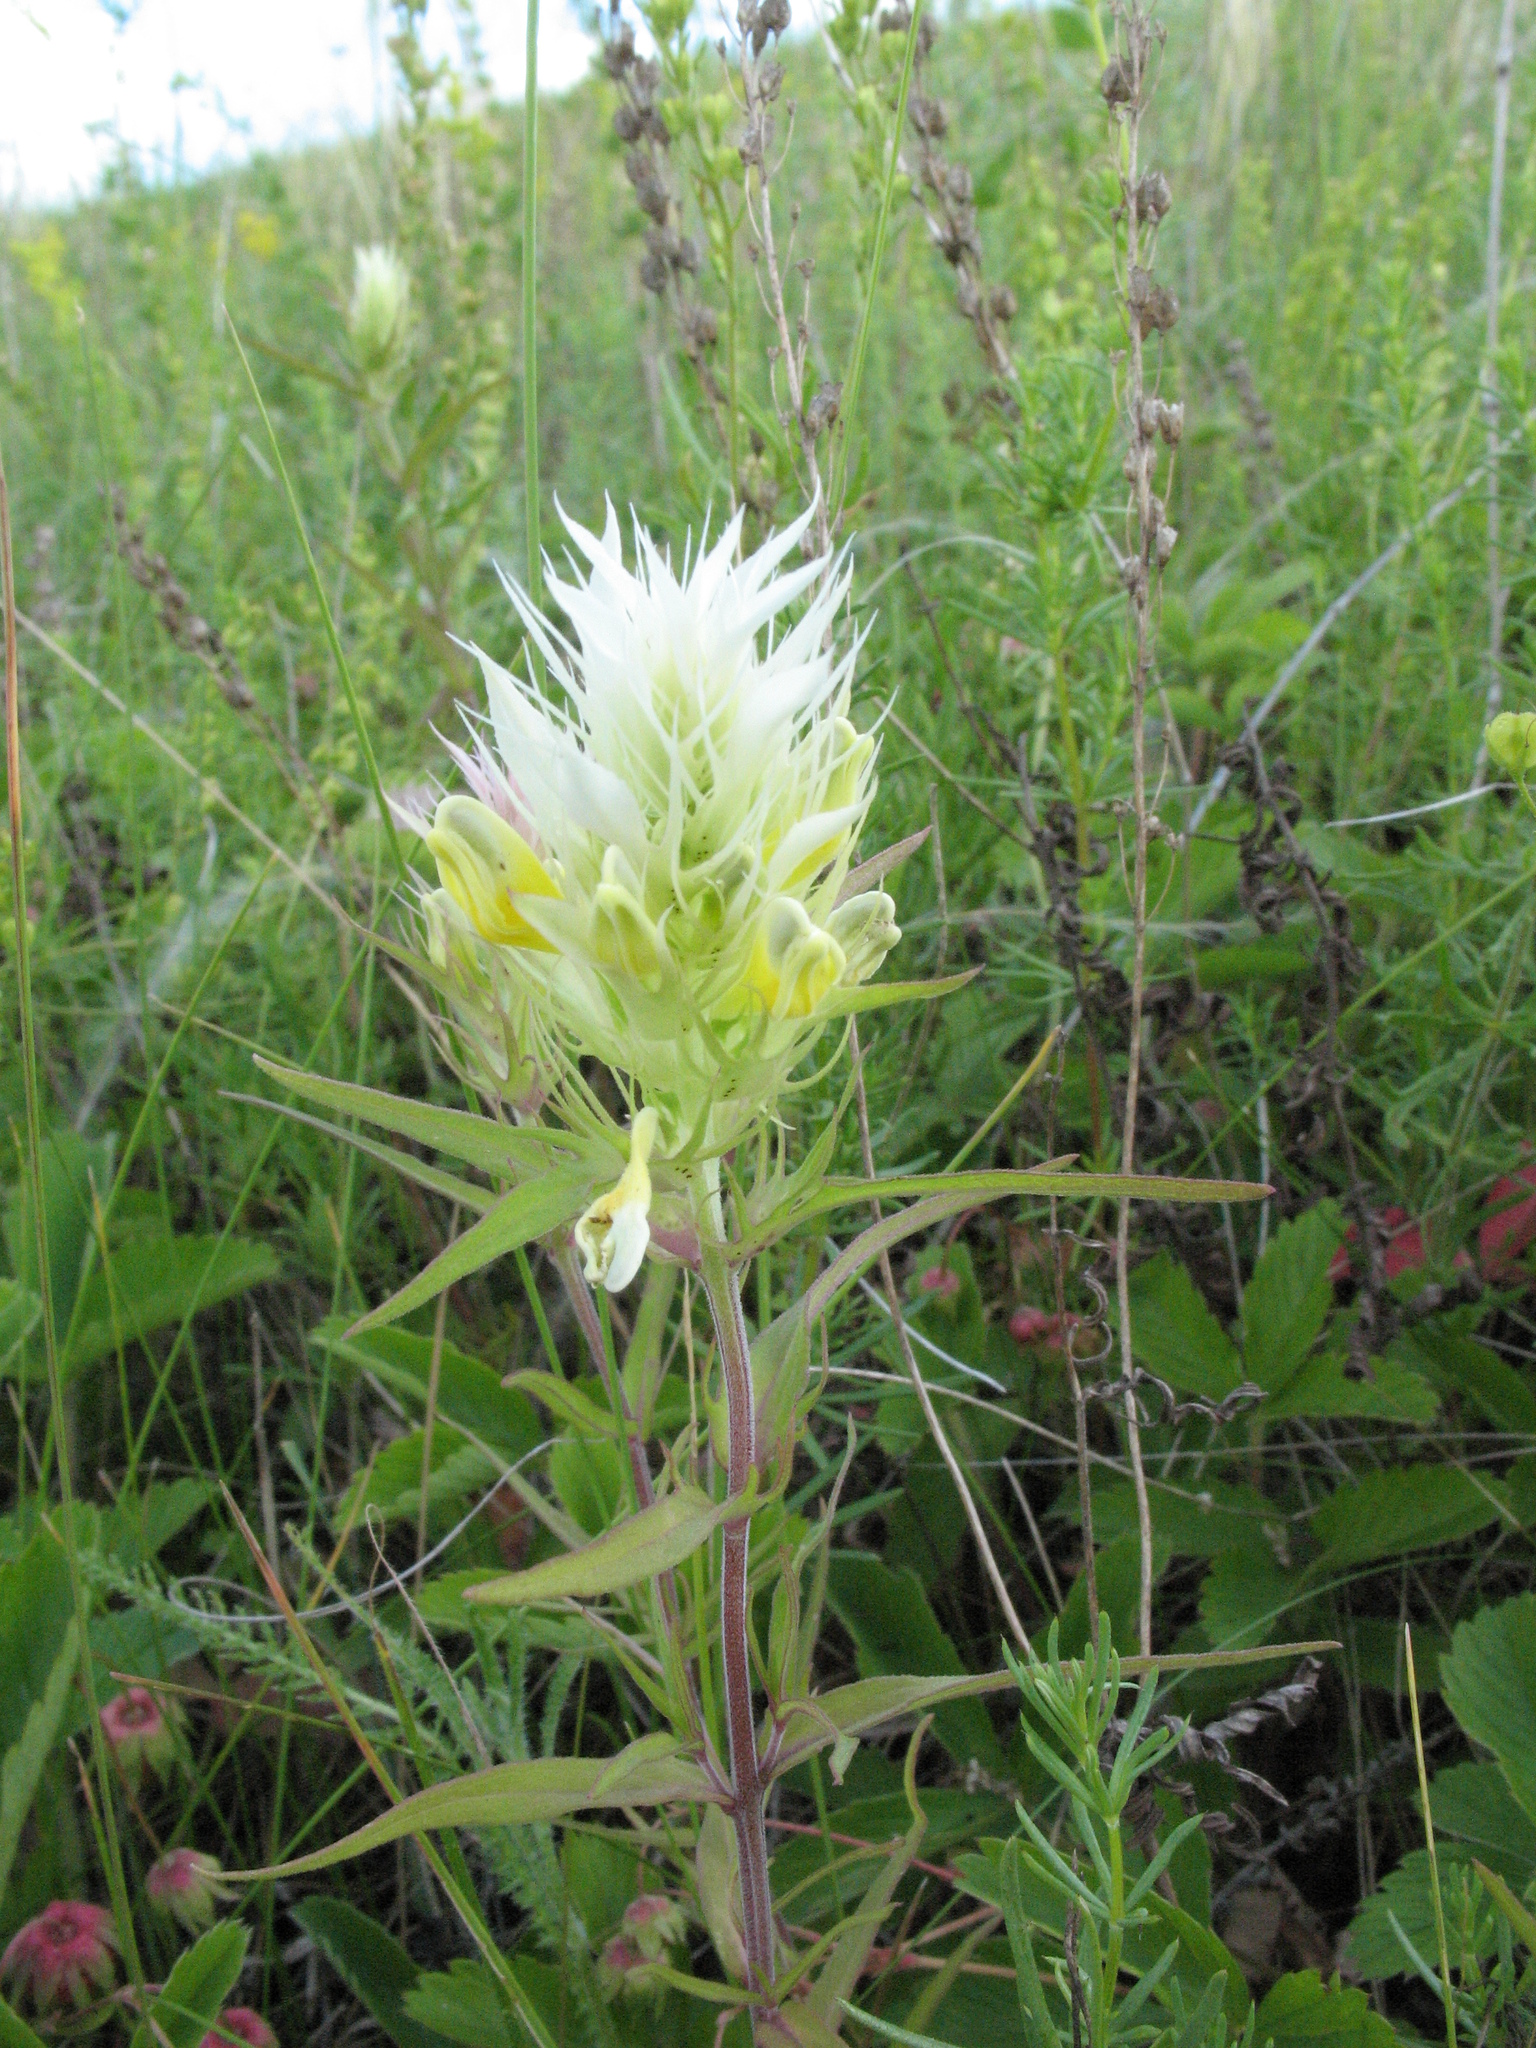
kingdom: Plantae
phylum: Tracheophyta
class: Magnoliopsida
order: Lamiales
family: Orobanchaceae
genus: Melampyrum
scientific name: Melampyrum arvense
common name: Field cow-wheat
